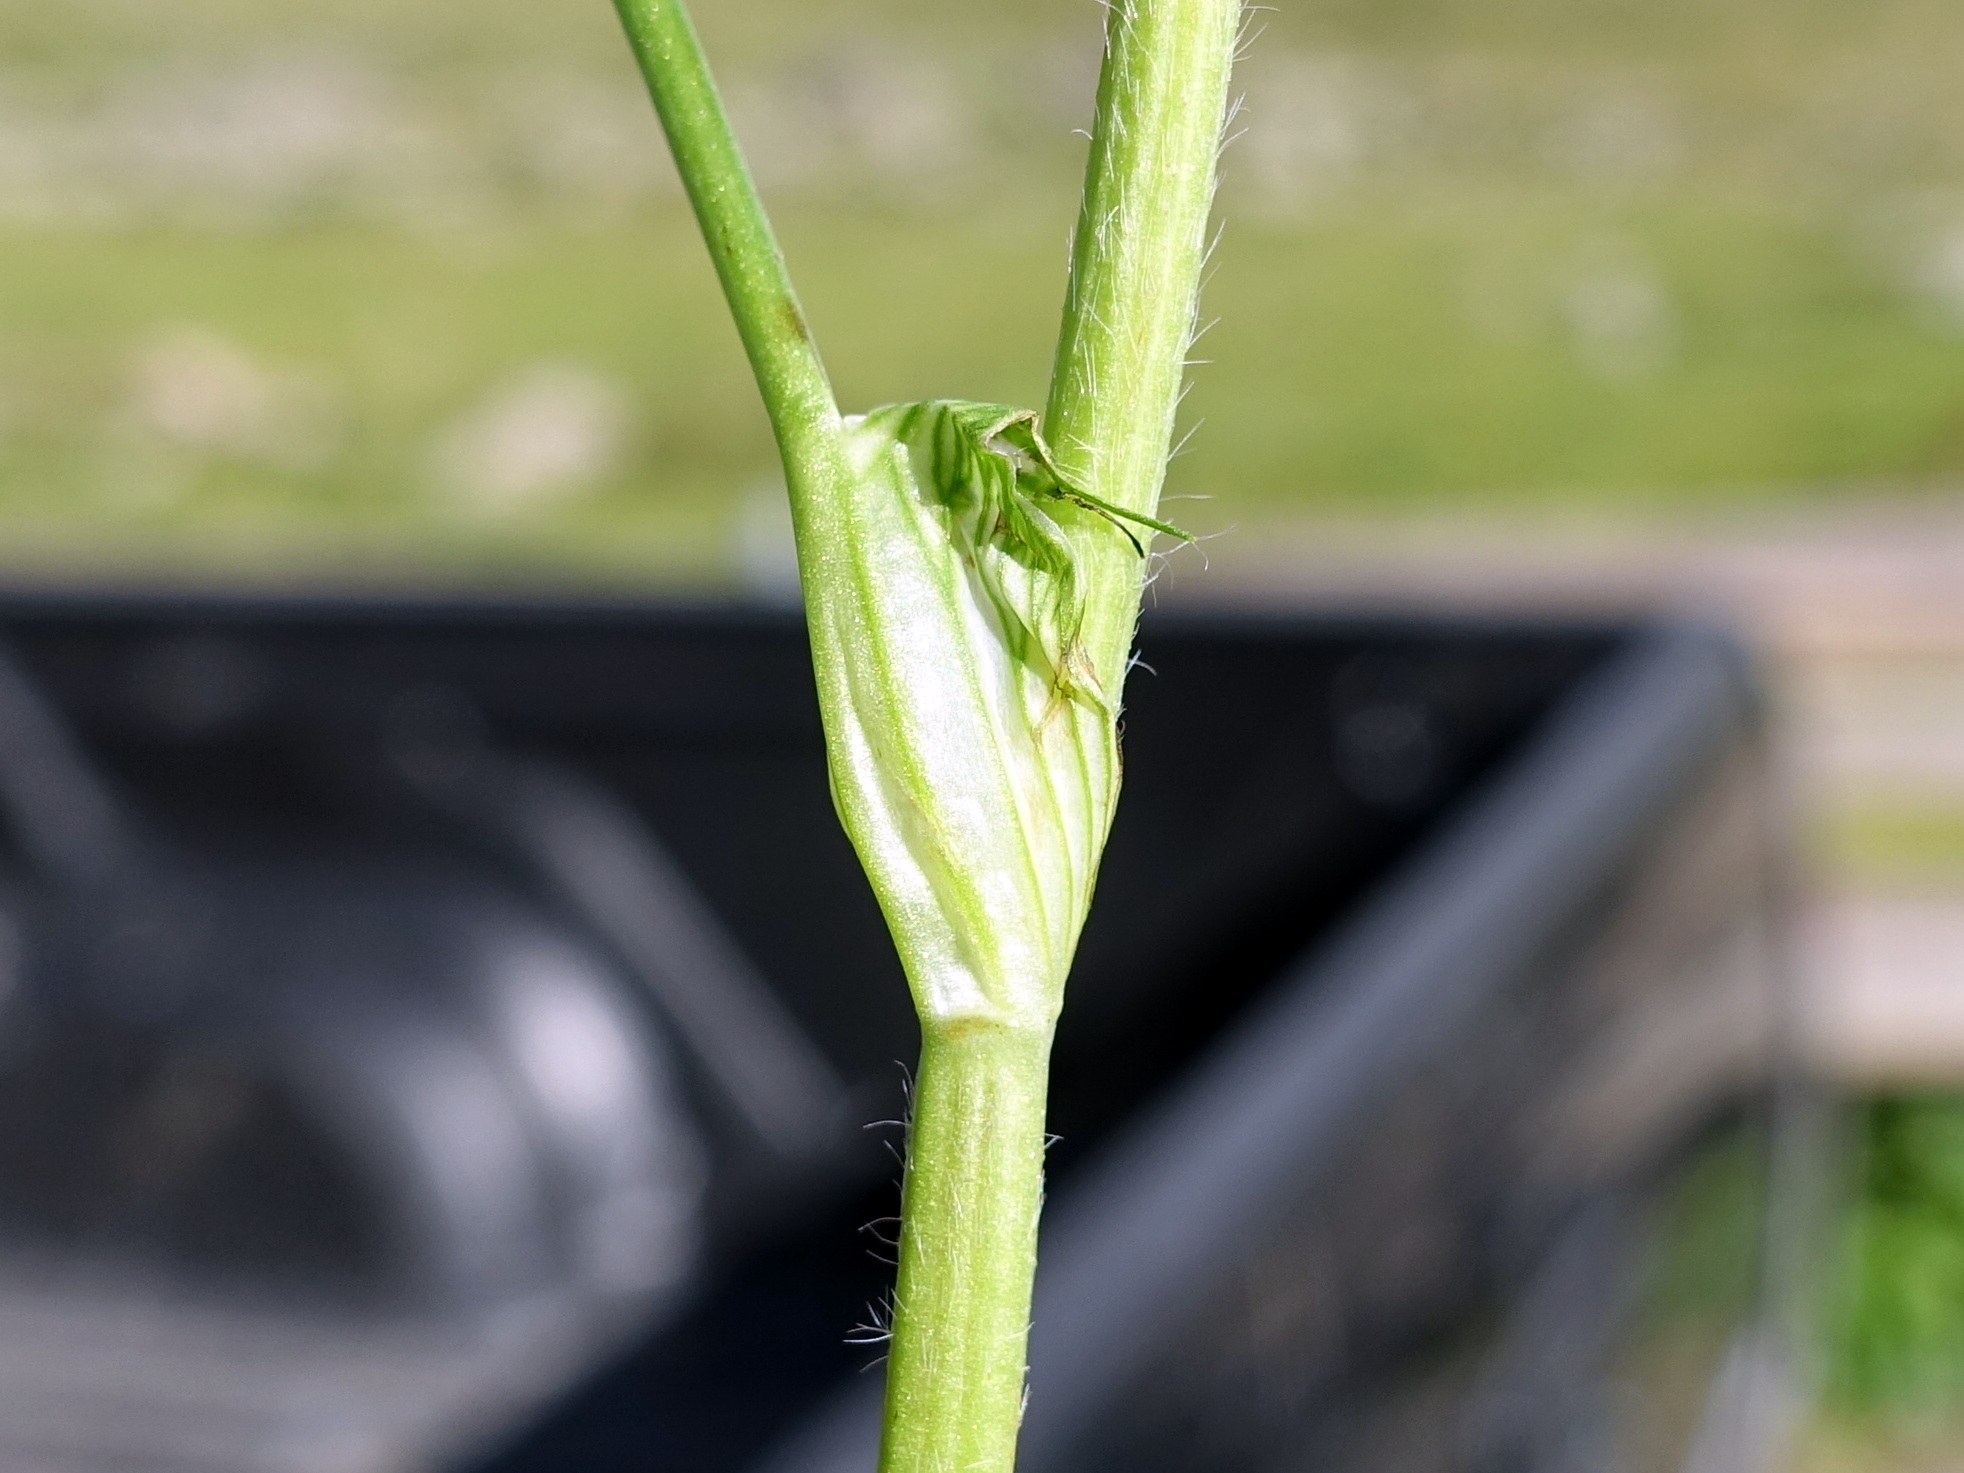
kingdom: Plantae
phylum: Tracheophyta
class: Magnoliopsida
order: Fabales
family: Fabaceae
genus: Trifolium
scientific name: Trifolium pratense
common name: Red clover
